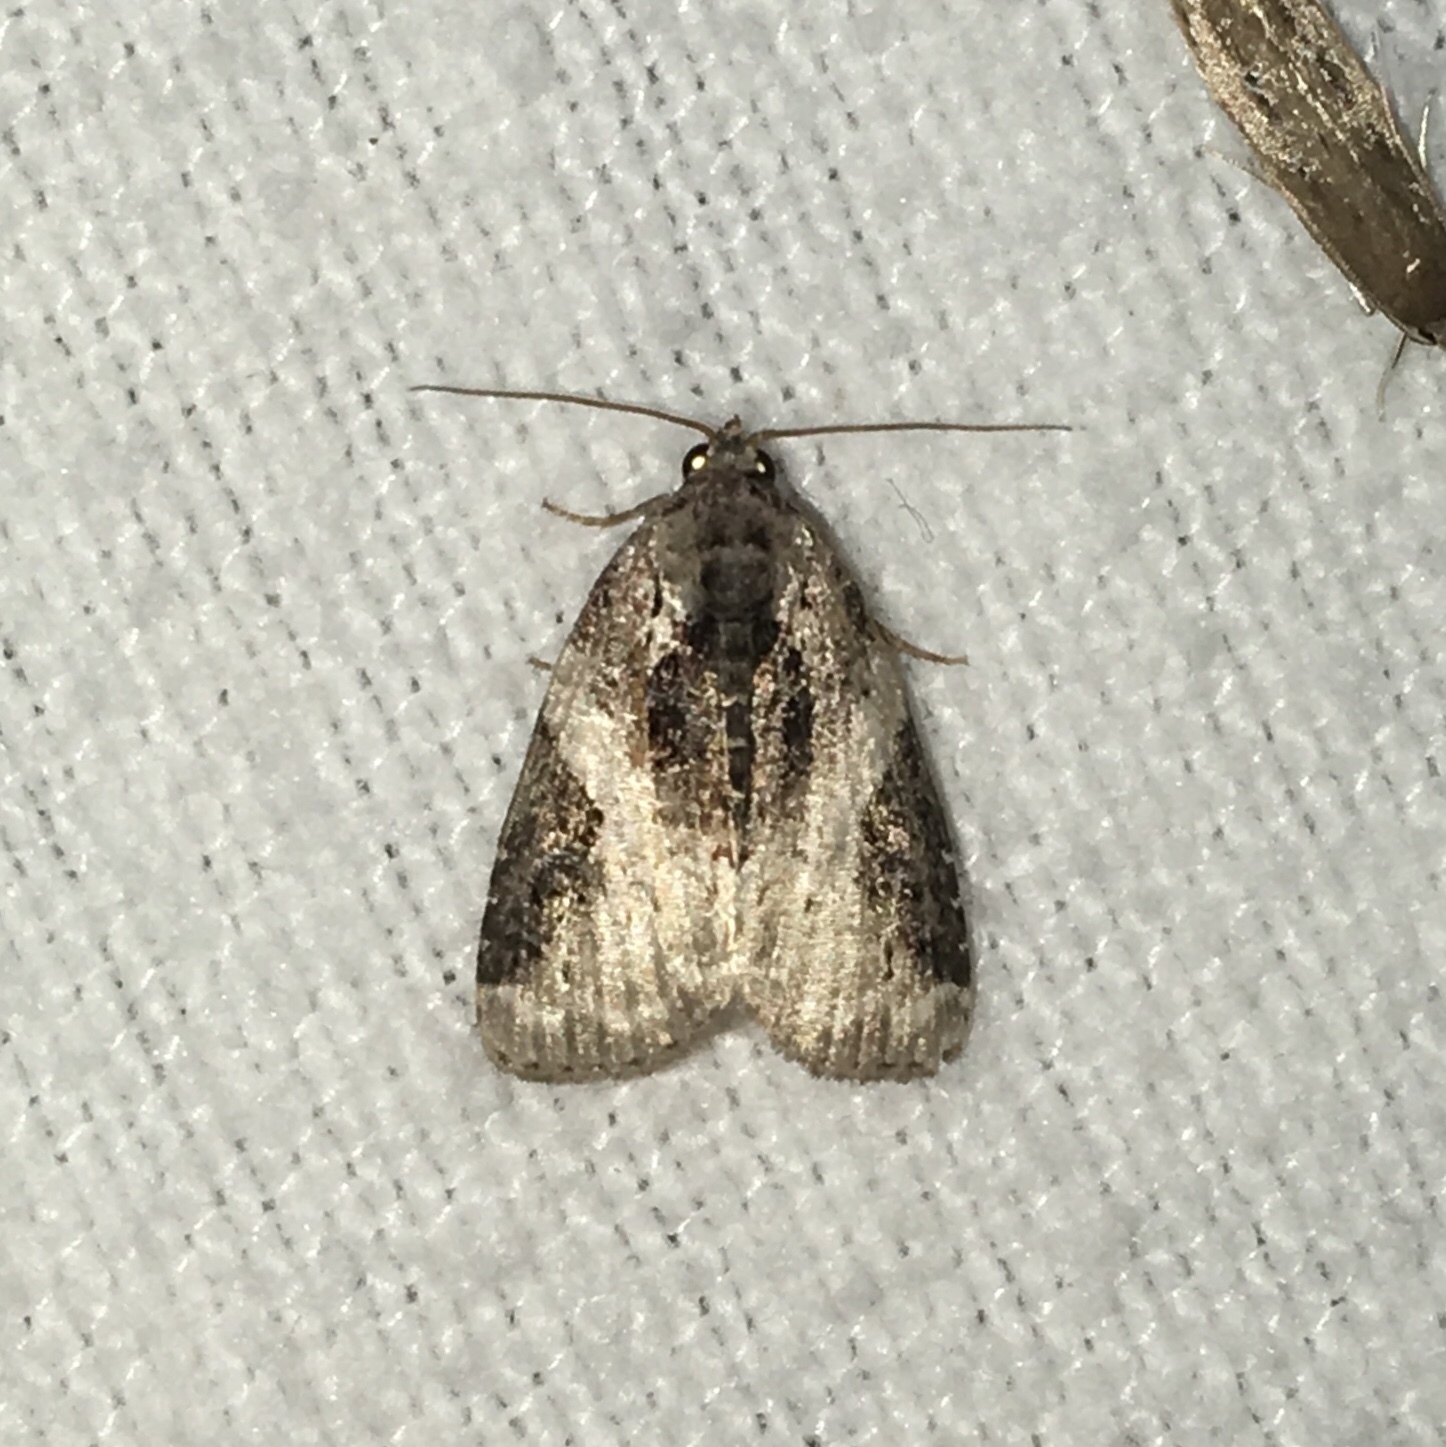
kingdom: Animalia
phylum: Arthropoda
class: Insecta
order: Lepidoptera
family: Noctuidae
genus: Pseudeustrotia
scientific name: Pseudeustrotia carneola
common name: Pink-barred lithacodia moth
